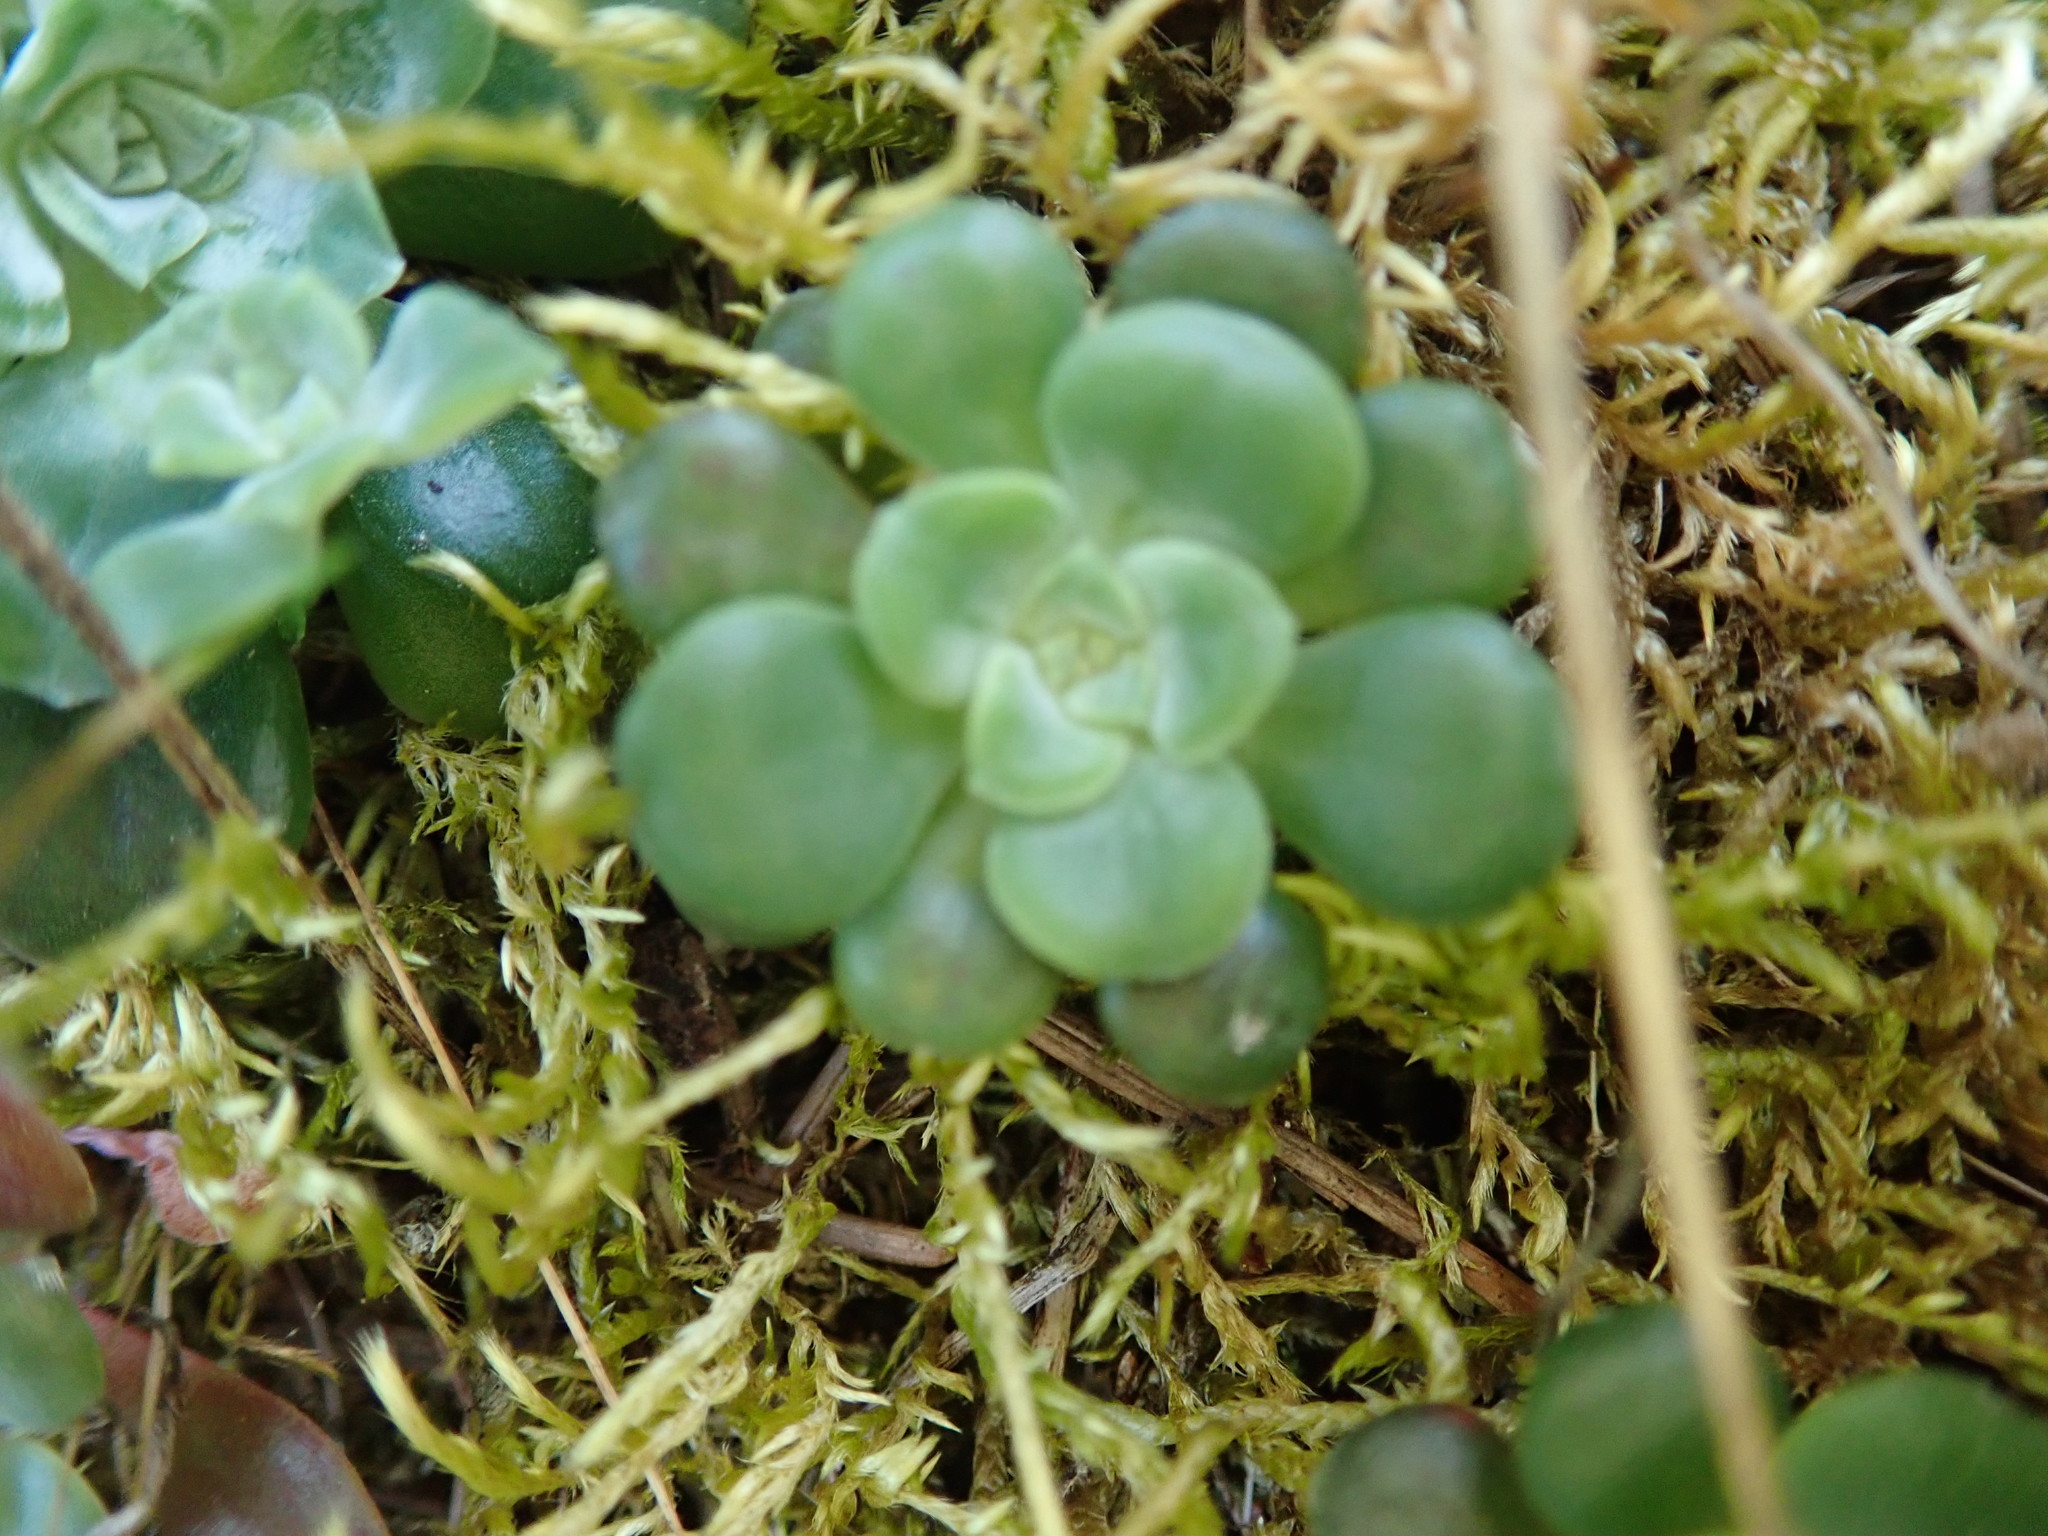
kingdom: Plantae
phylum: Tracheophyta
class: Magnoliopsida
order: Saxifragales
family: Crassulaceae
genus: Sedum
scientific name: Sedum spathulifolium
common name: Colorado stonecrop
